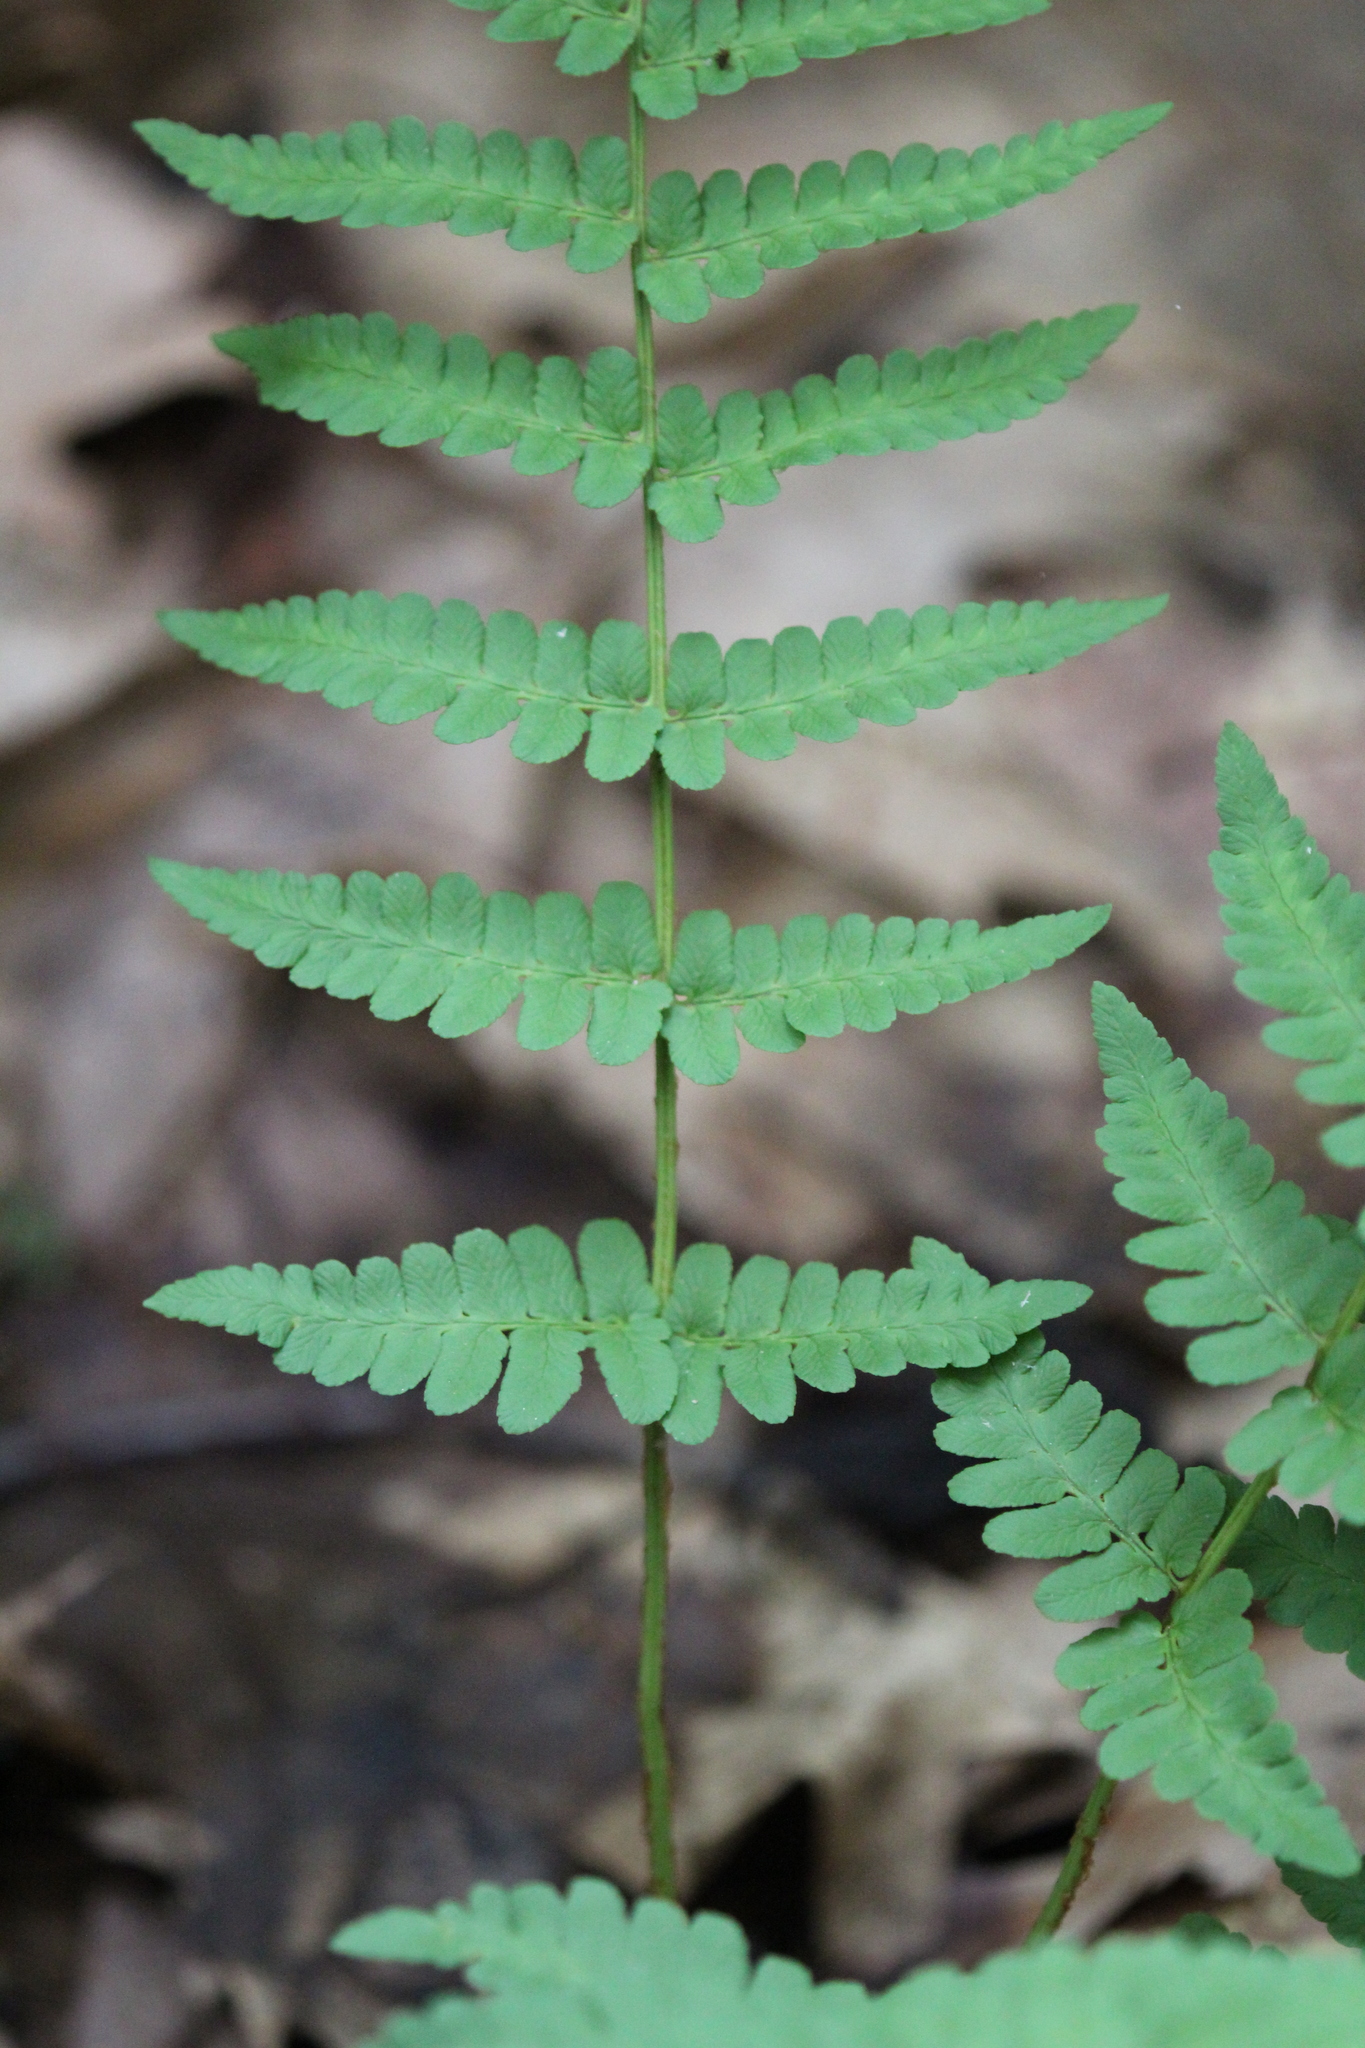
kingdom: Plantae
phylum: Tracheophyta
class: Polypodiopsida
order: Polypodiales
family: Dryopteridaceae
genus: Dryopteris
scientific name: Dryopteris marginalis
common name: Marginal wood fern
